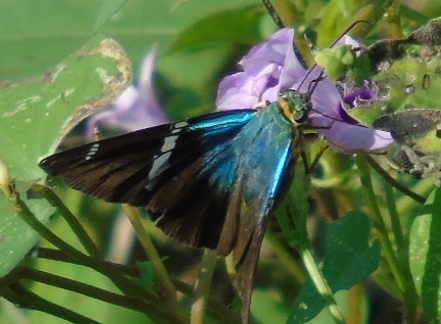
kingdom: Animalia
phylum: Arthropoda
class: Insecta
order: Lepidoptera
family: Hesperiidae
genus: Astraptes
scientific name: Astraptes fulgerator
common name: Two-barred flasher
